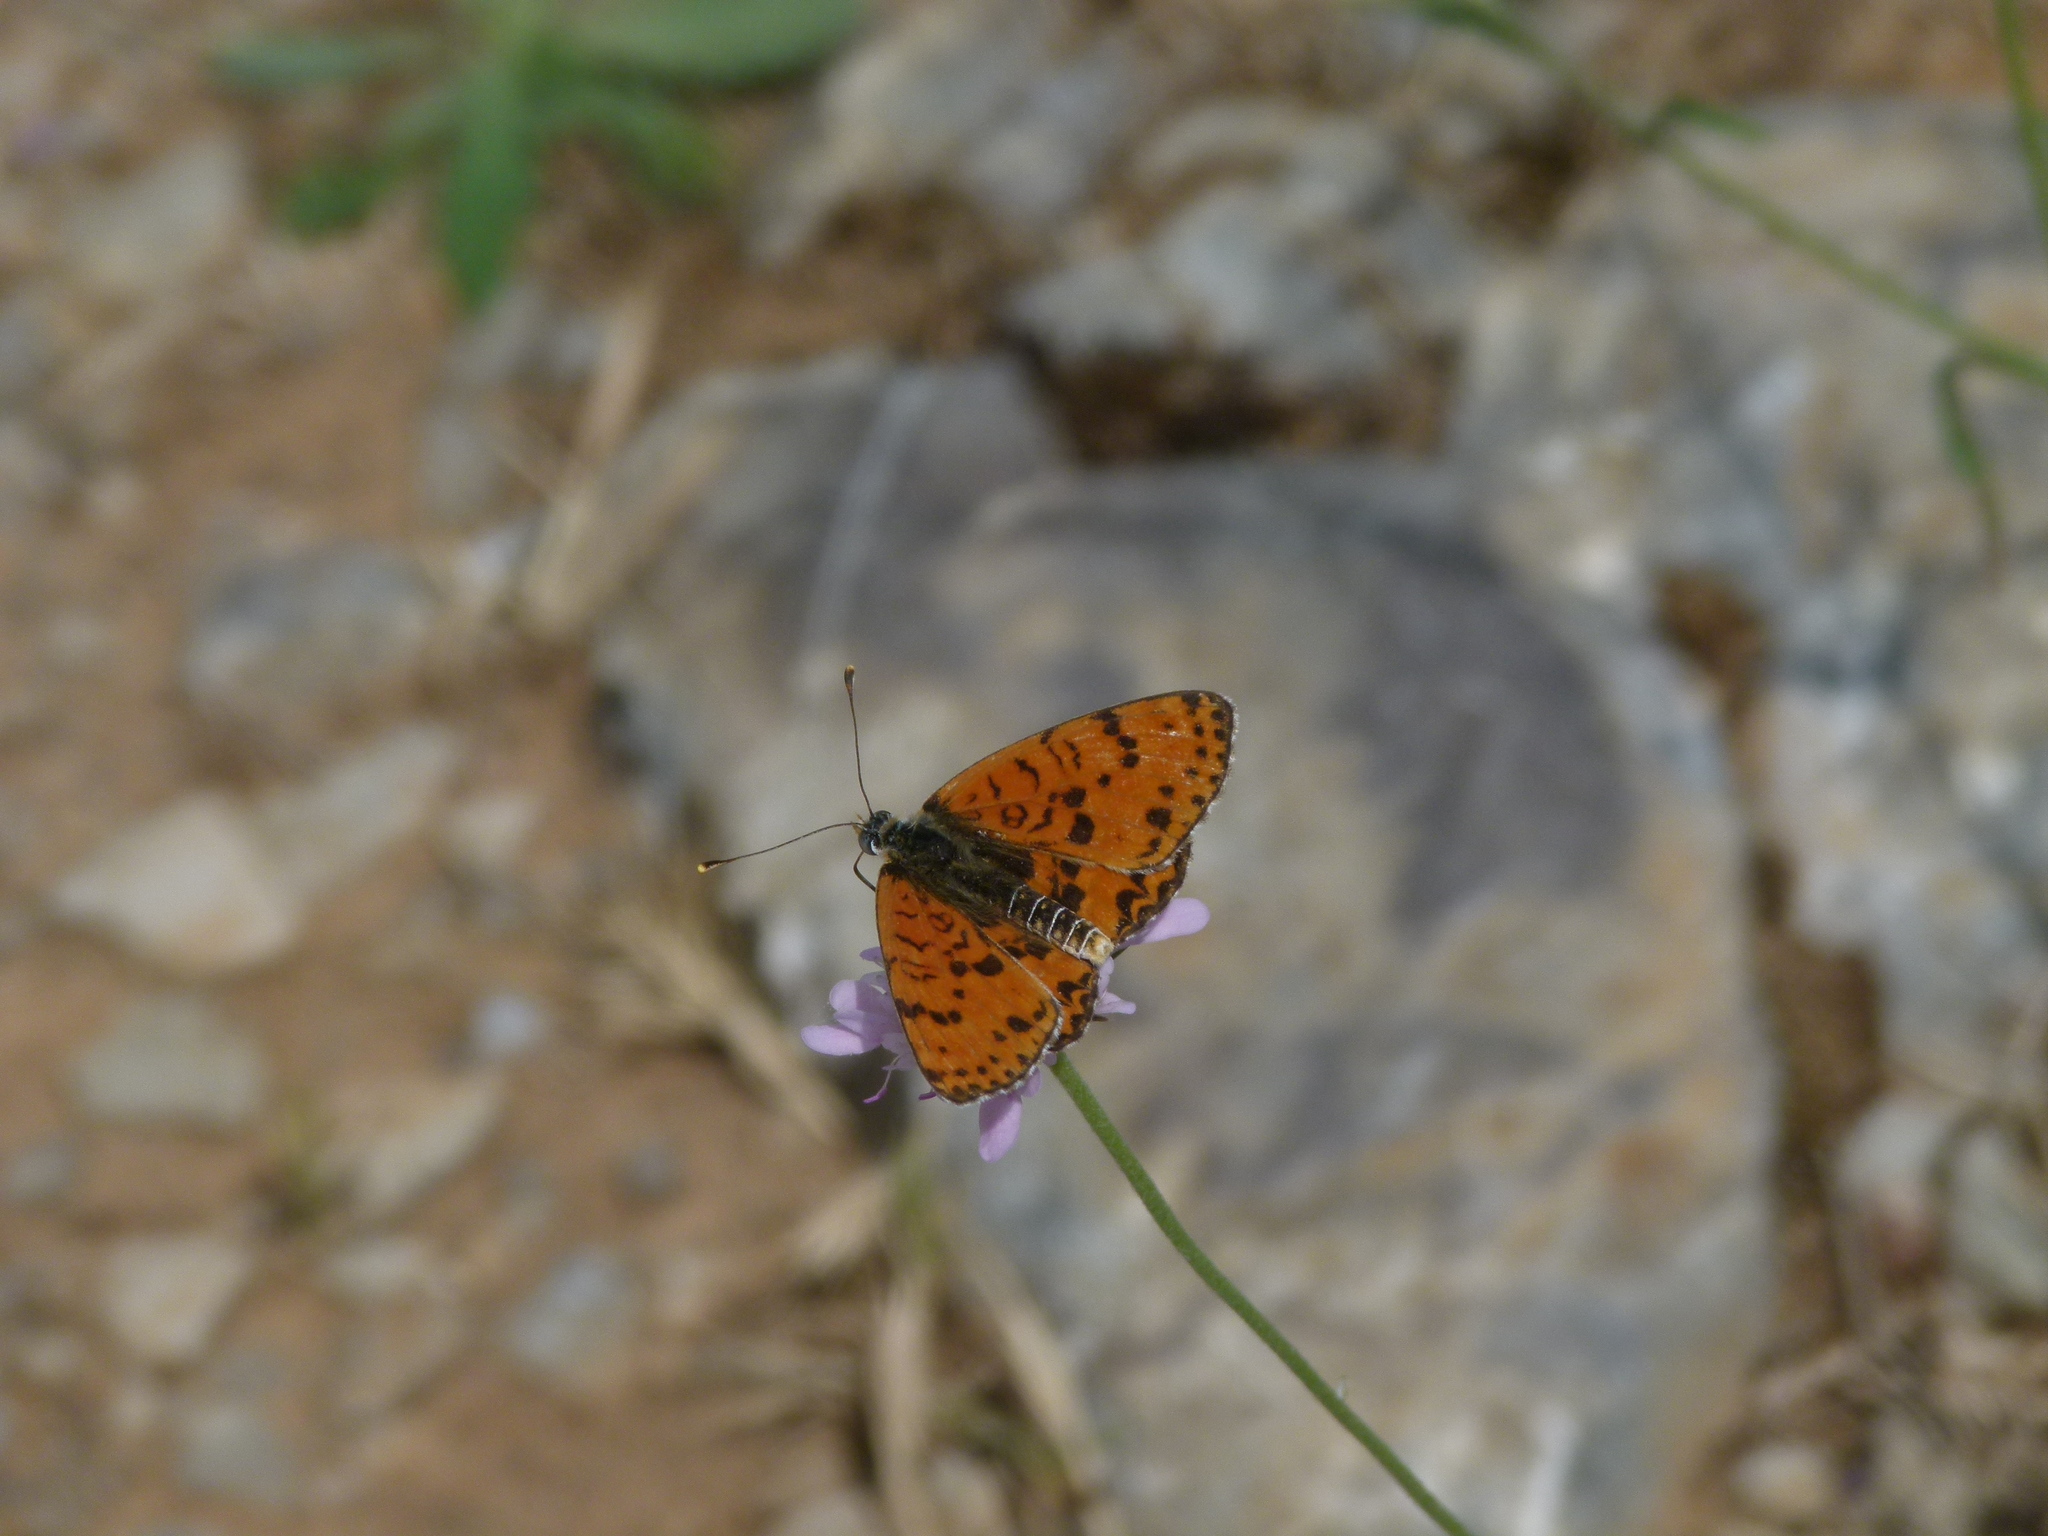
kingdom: Animalia
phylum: Arthropoda
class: Insecta
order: Lepidoptera
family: Nymphalidae
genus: Melitaea
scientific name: Melitaea didyma
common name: Spotted fritillary
